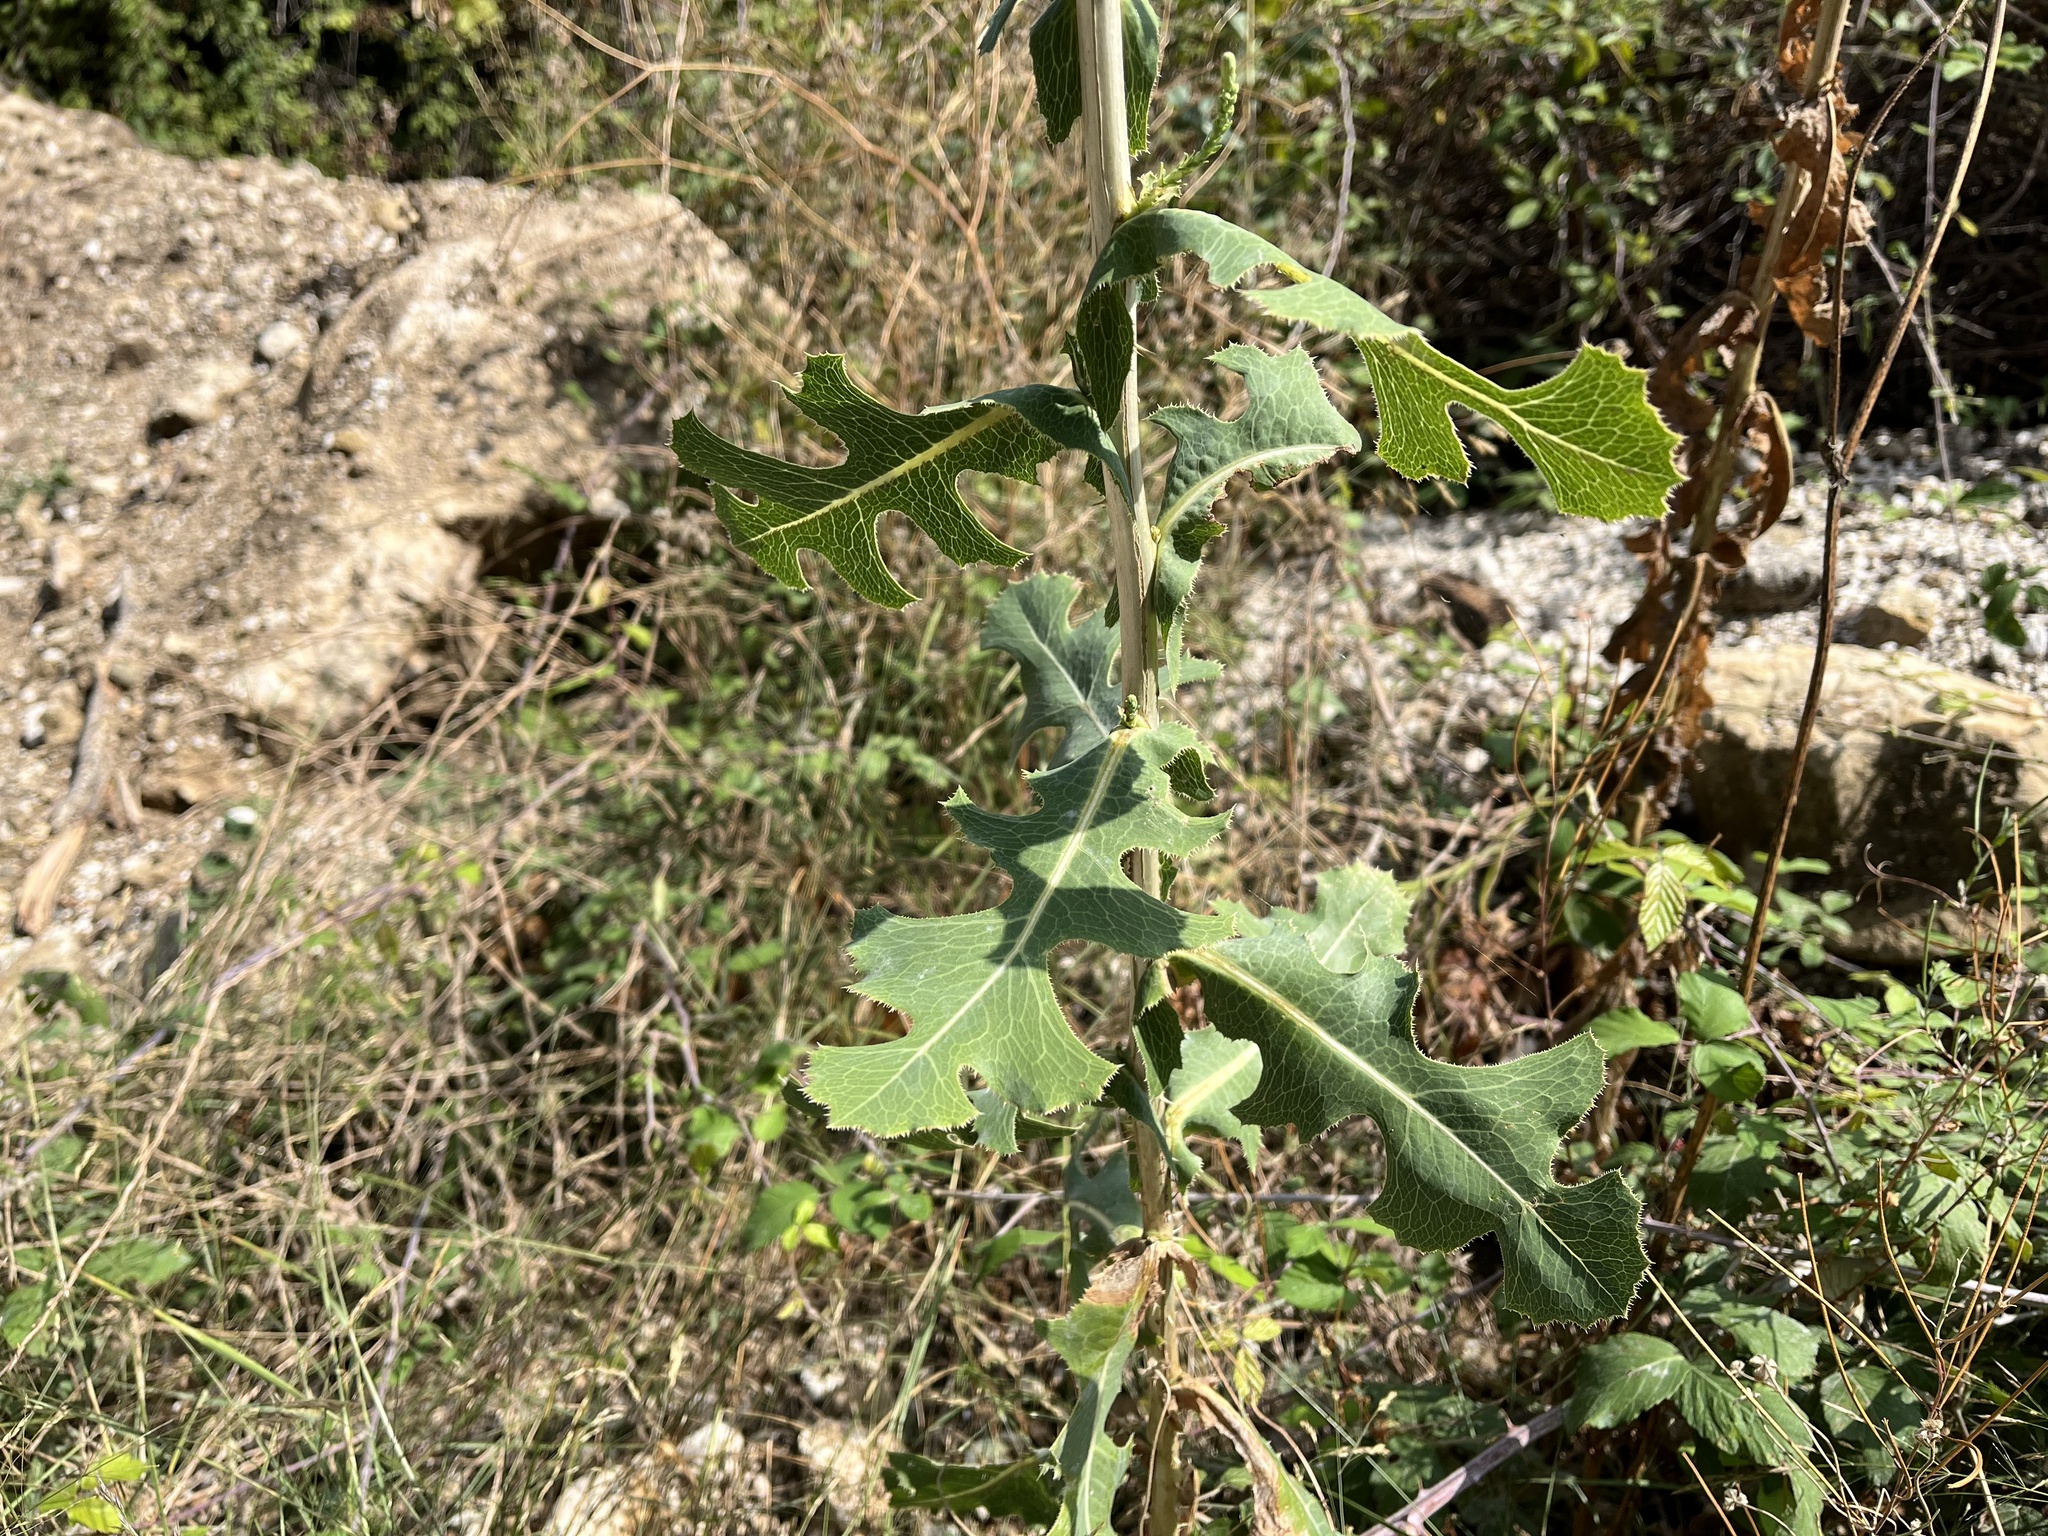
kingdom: Plantae
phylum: Tracheophyta
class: Magnoliopsida
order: Asterales
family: Asteraceae
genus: Lactuca
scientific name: Lactuca serriola
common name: Prickly lettuce
